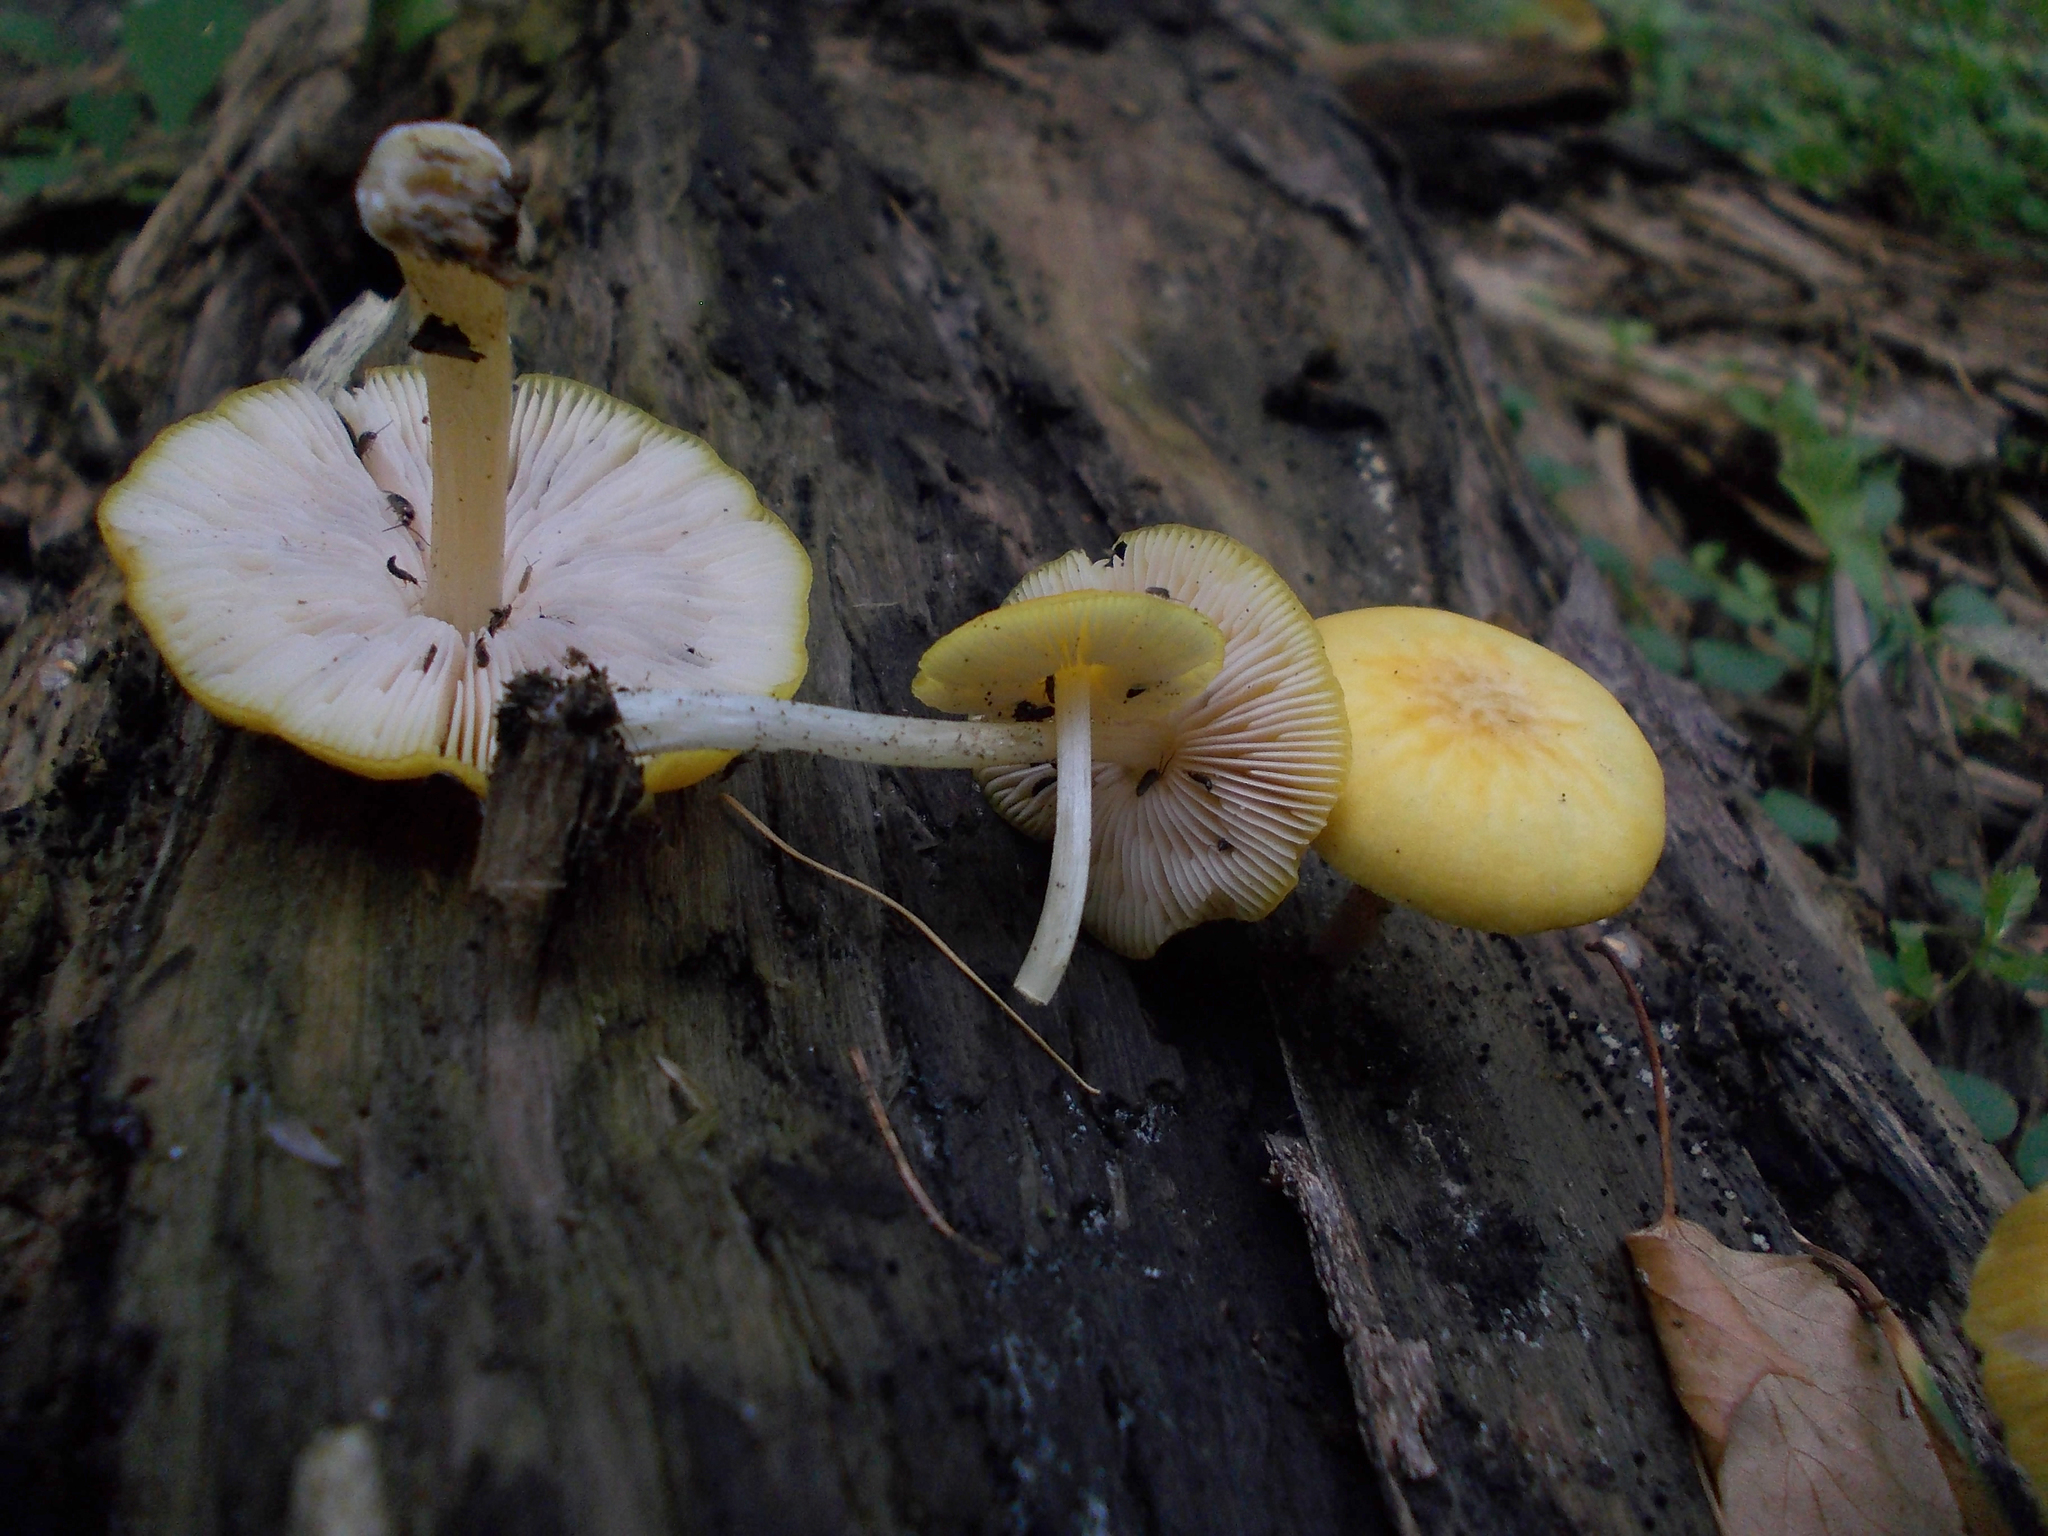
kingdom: Fungi
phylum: Basidiomycota
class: Agaricomycetes
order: Agaricales
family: Pluteaceae
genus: Pluteus
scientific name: Pluteus chrysophaeus
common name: Yellow shield
